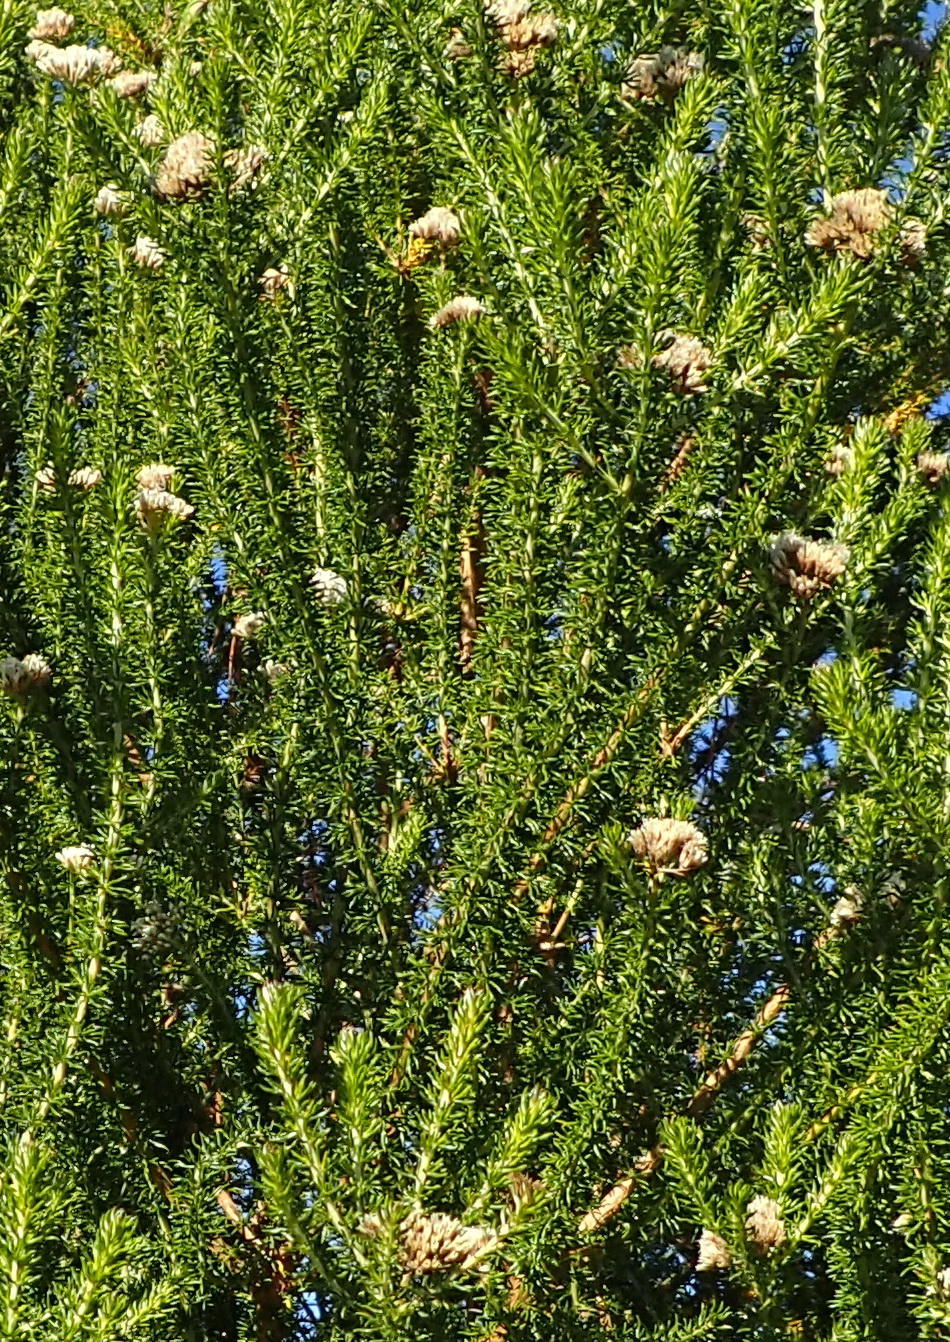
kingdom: Plantae
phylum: Tracheophyta
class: Magnoliopsida
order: Asterales
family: Asteraceae
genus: Metalasia
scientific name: Metalasia muricata
